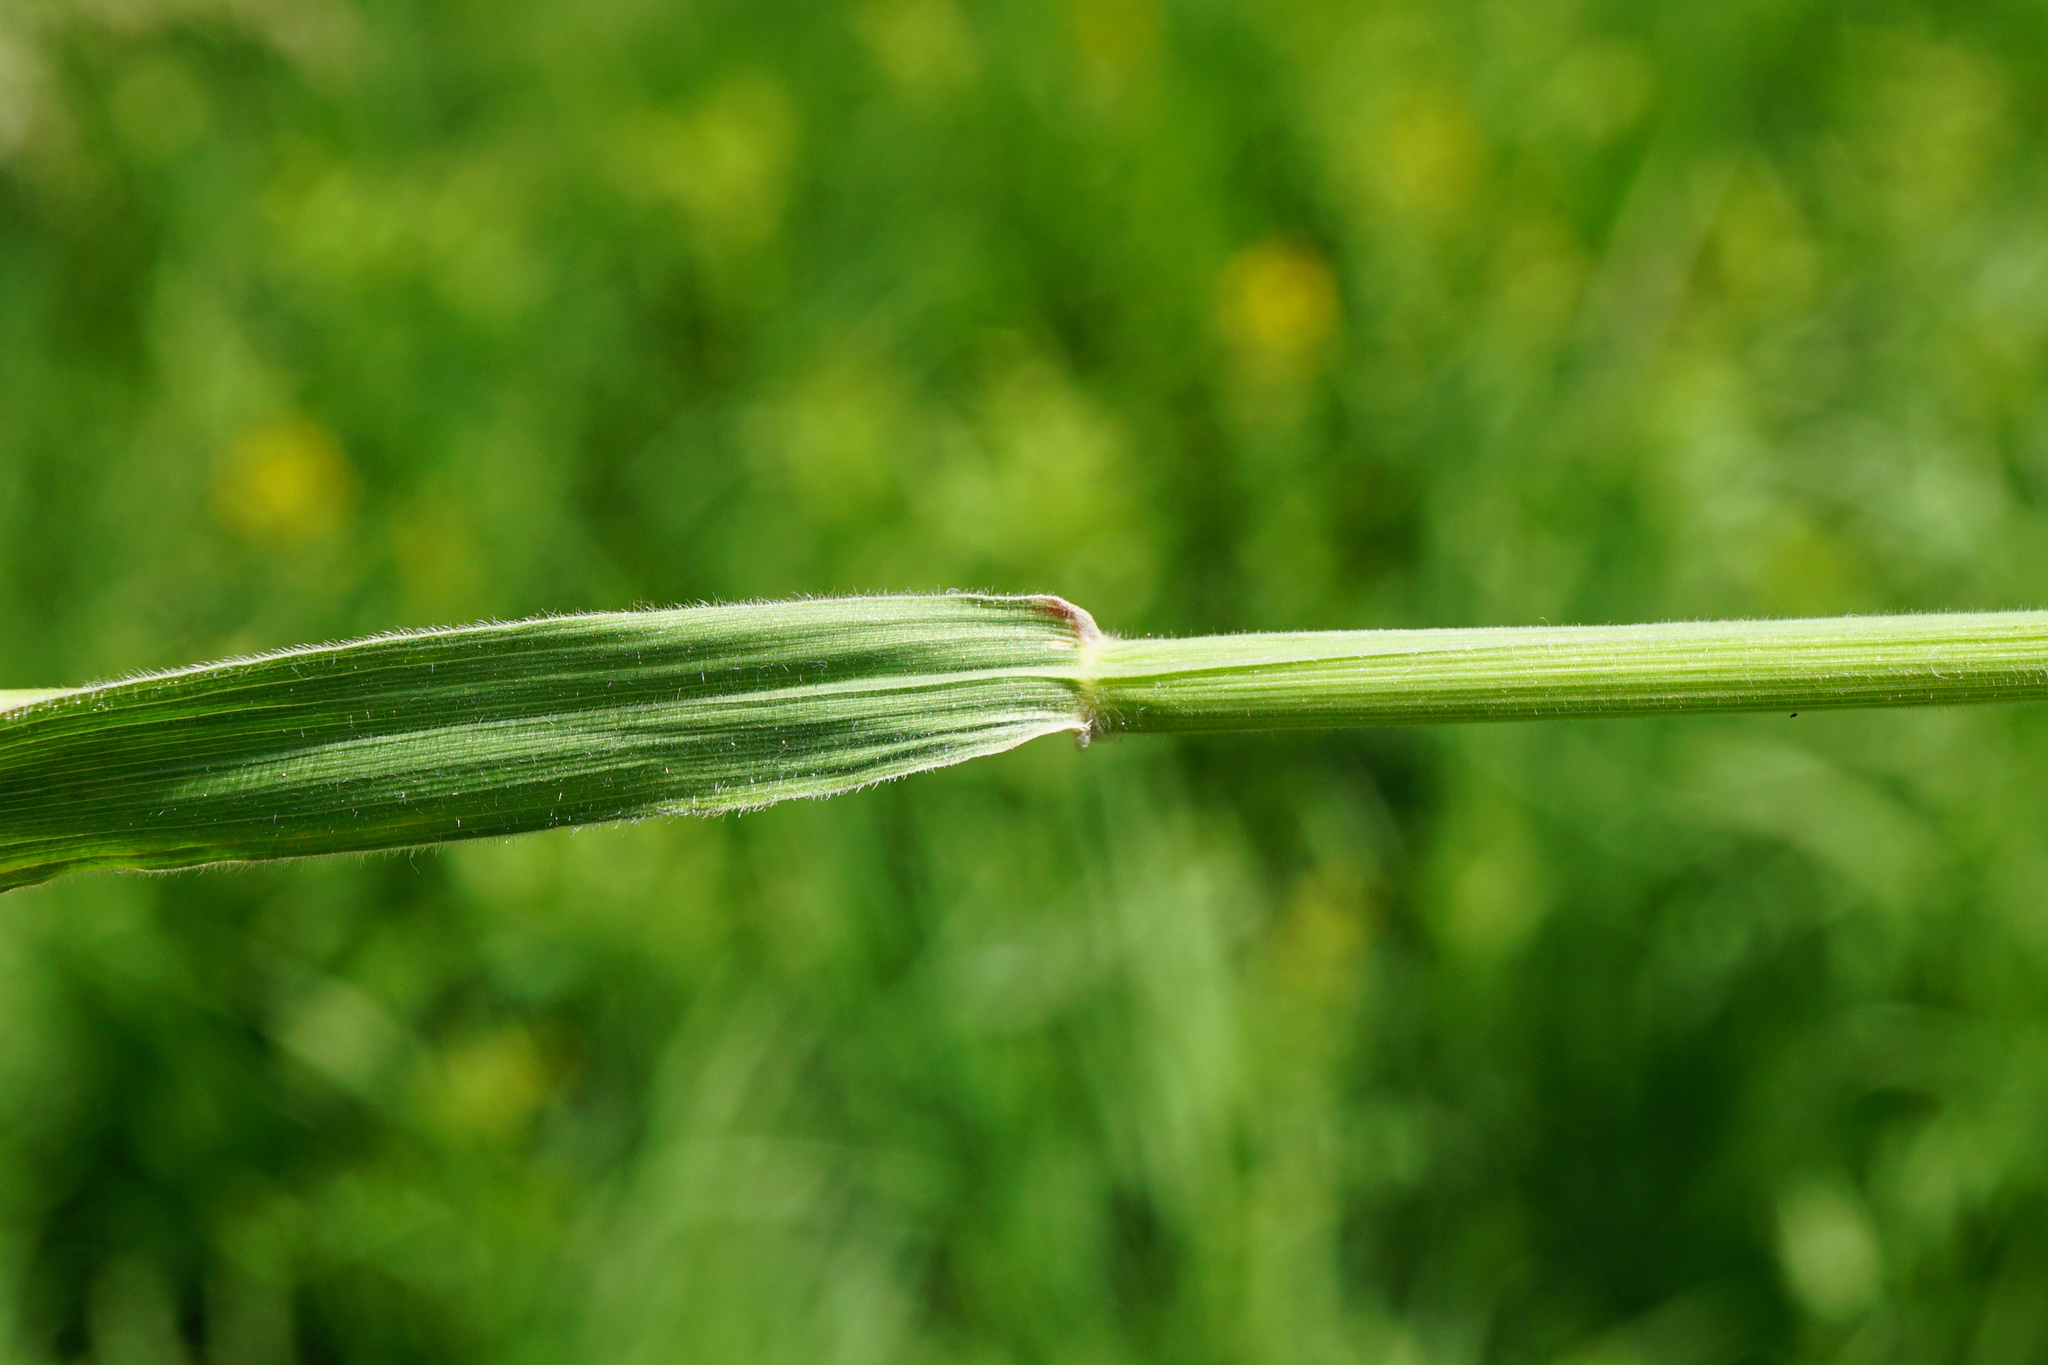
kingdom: Plantae
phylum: Tracheophyta
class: Liliopsida
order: Poales
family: Poaceae
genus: Holcus
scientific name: Holcus lanatus
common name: Yorkshire-fog
